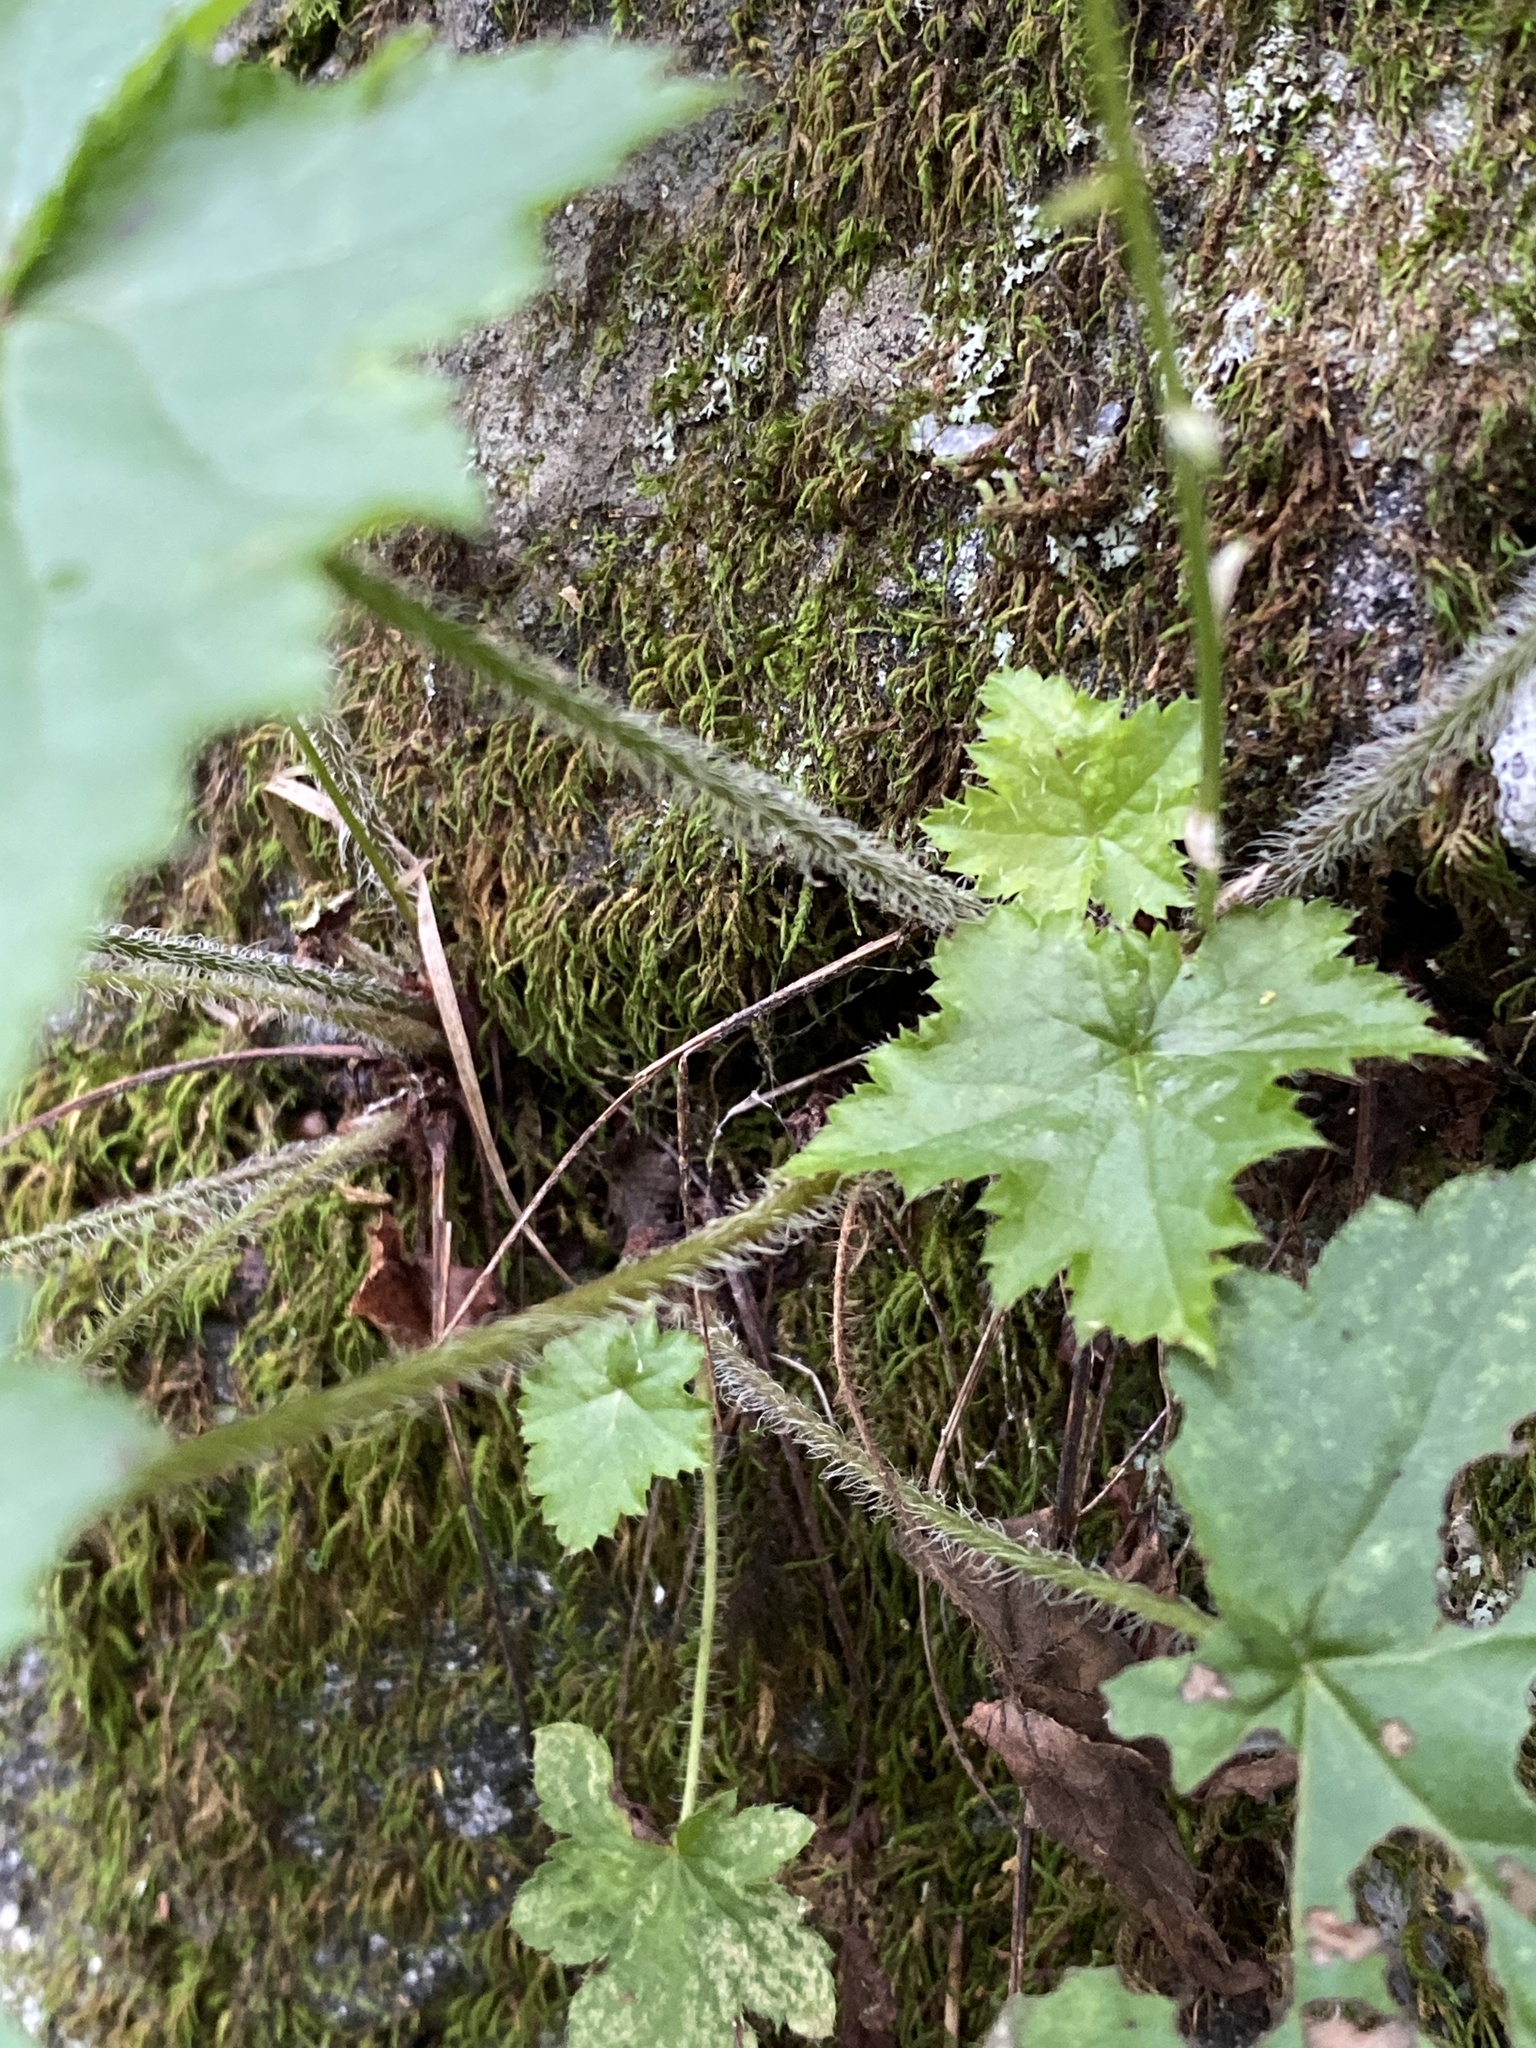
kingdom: Plantae
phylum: Tracheophyta
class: Magnoliopsida
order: Saxifragales
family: Saxifragaceae
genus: Heuchera
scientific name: Heuchera villosa
